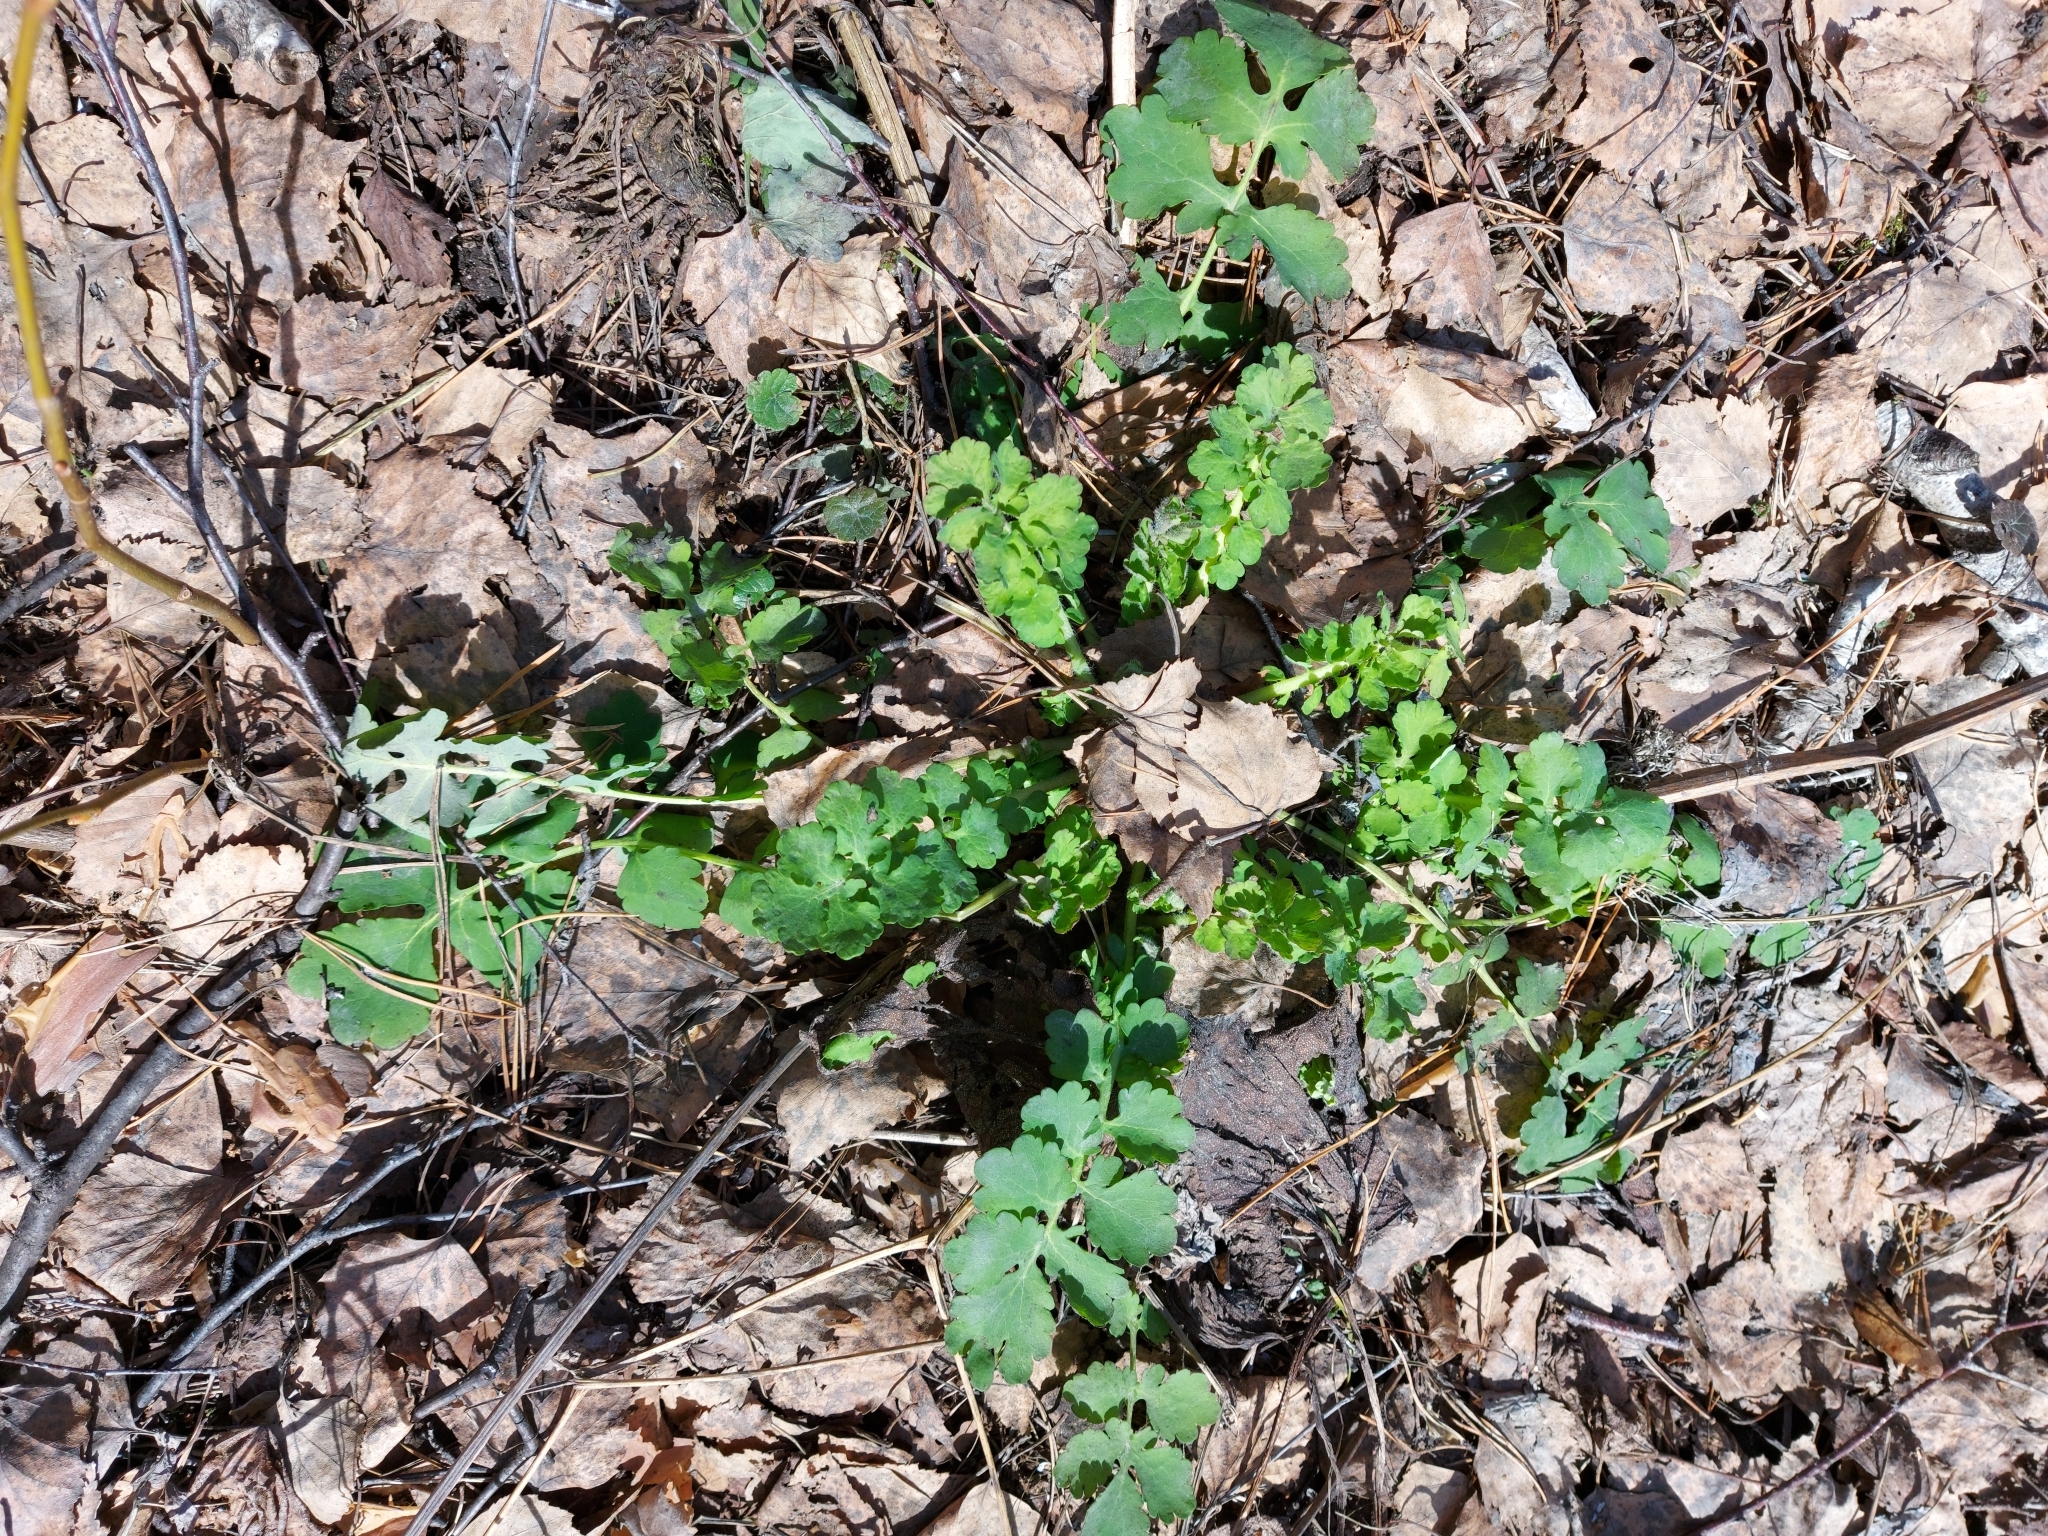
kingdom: Plantae
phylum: Tracheophyta
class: Magnoliopsida
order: Ranunculales
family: Papaveraceae
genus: Chelidonium
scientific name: Chelidonium majus
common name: Greater celandine
